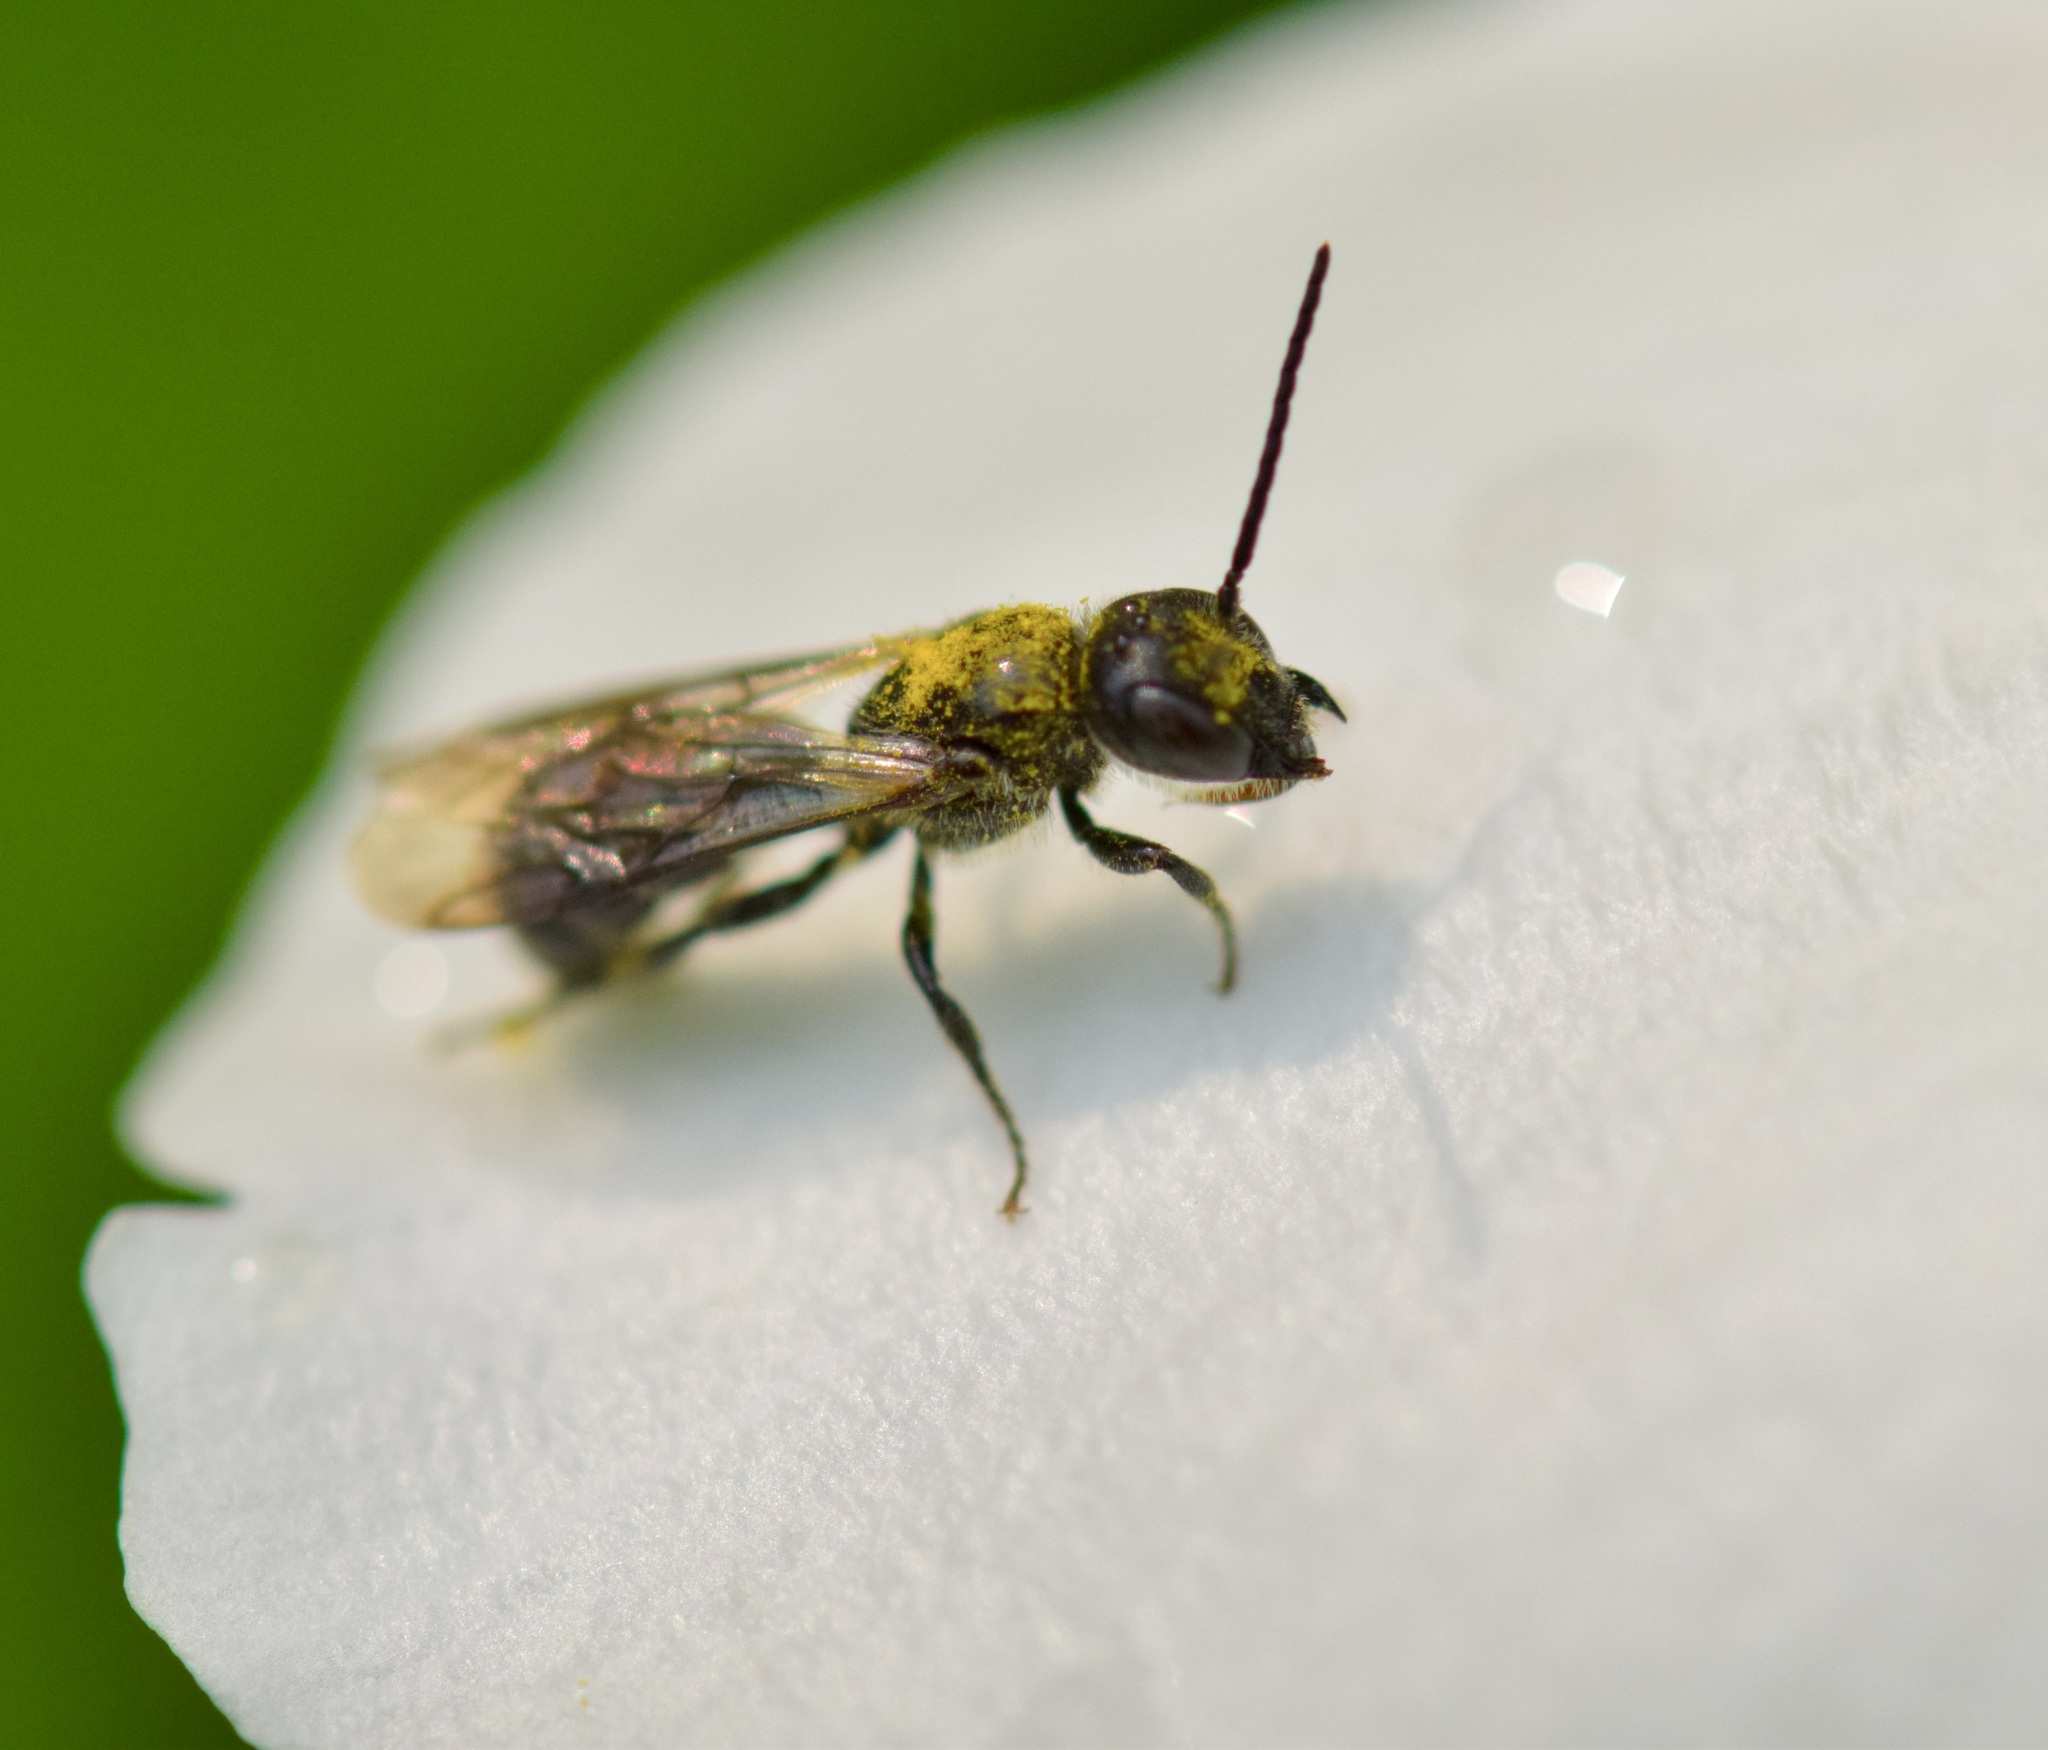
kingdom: Animalia
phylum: Arthropoda
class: Insecta
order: Hymenoptera
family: Megachilidae
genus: Chelostoma
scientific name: Chelostoma philadelphi
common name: Mock-orange scissor bee
